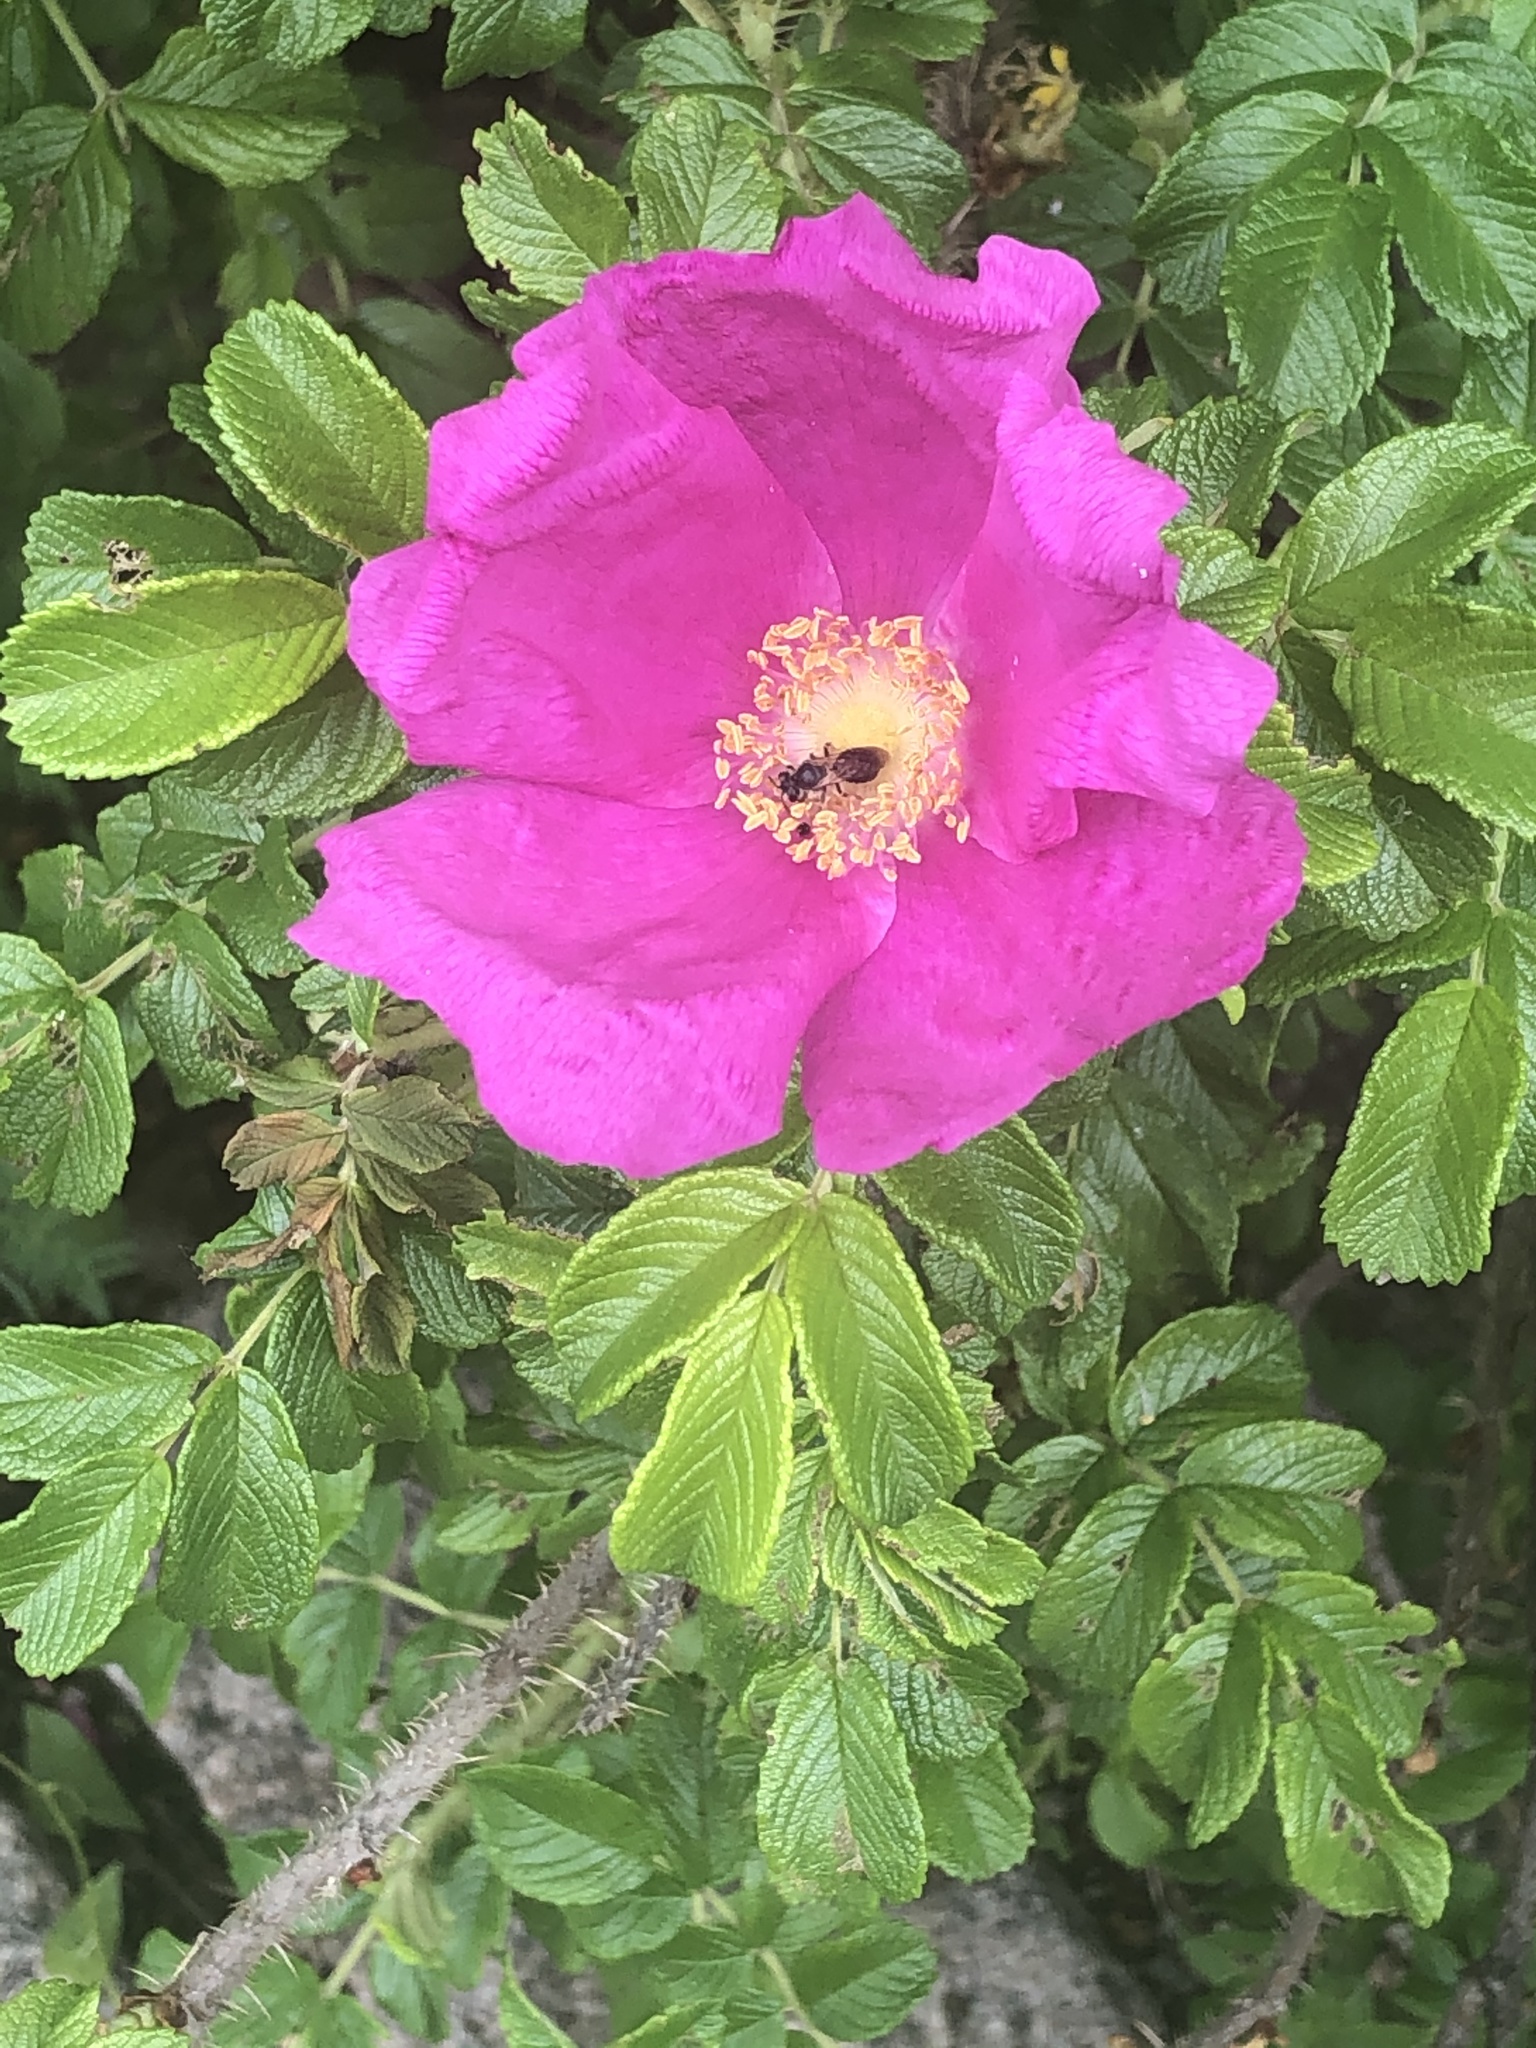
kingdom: Plantae
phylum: Tracheophyta
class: Magnoliopsida
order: Rosales
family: Rosaceae
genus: Rosa
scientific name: Rosa rugosa
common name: Japanese rose
